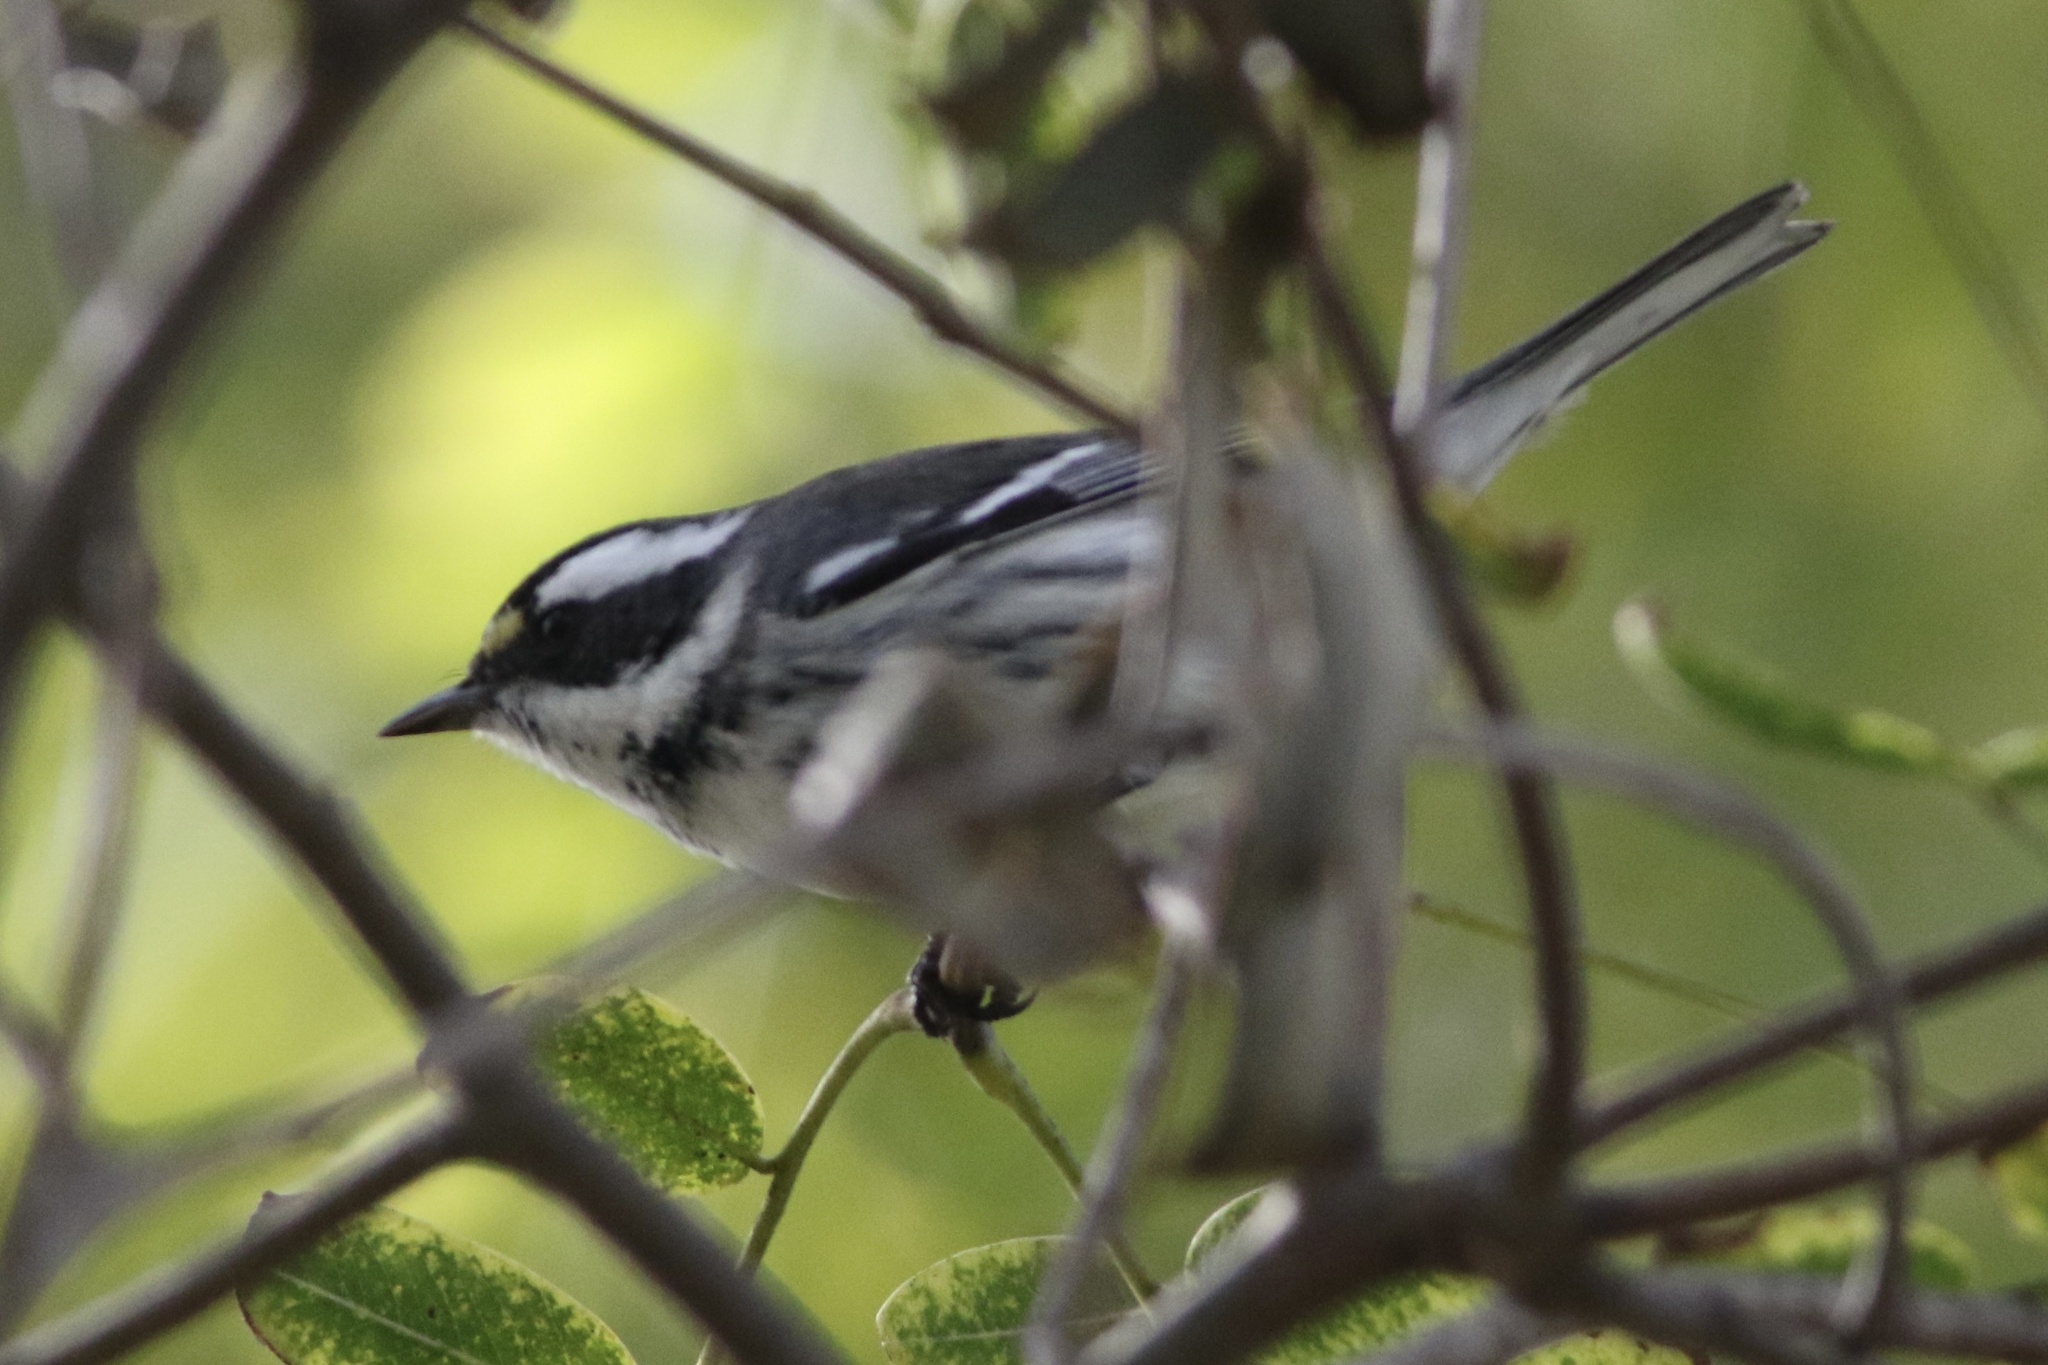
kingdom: Animalia
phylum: Chordata
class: Aves
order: Passeriformes
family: Parulidae
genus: Setophaga
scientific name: Setophaga nigrescens
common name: Black-throated gray warbler
